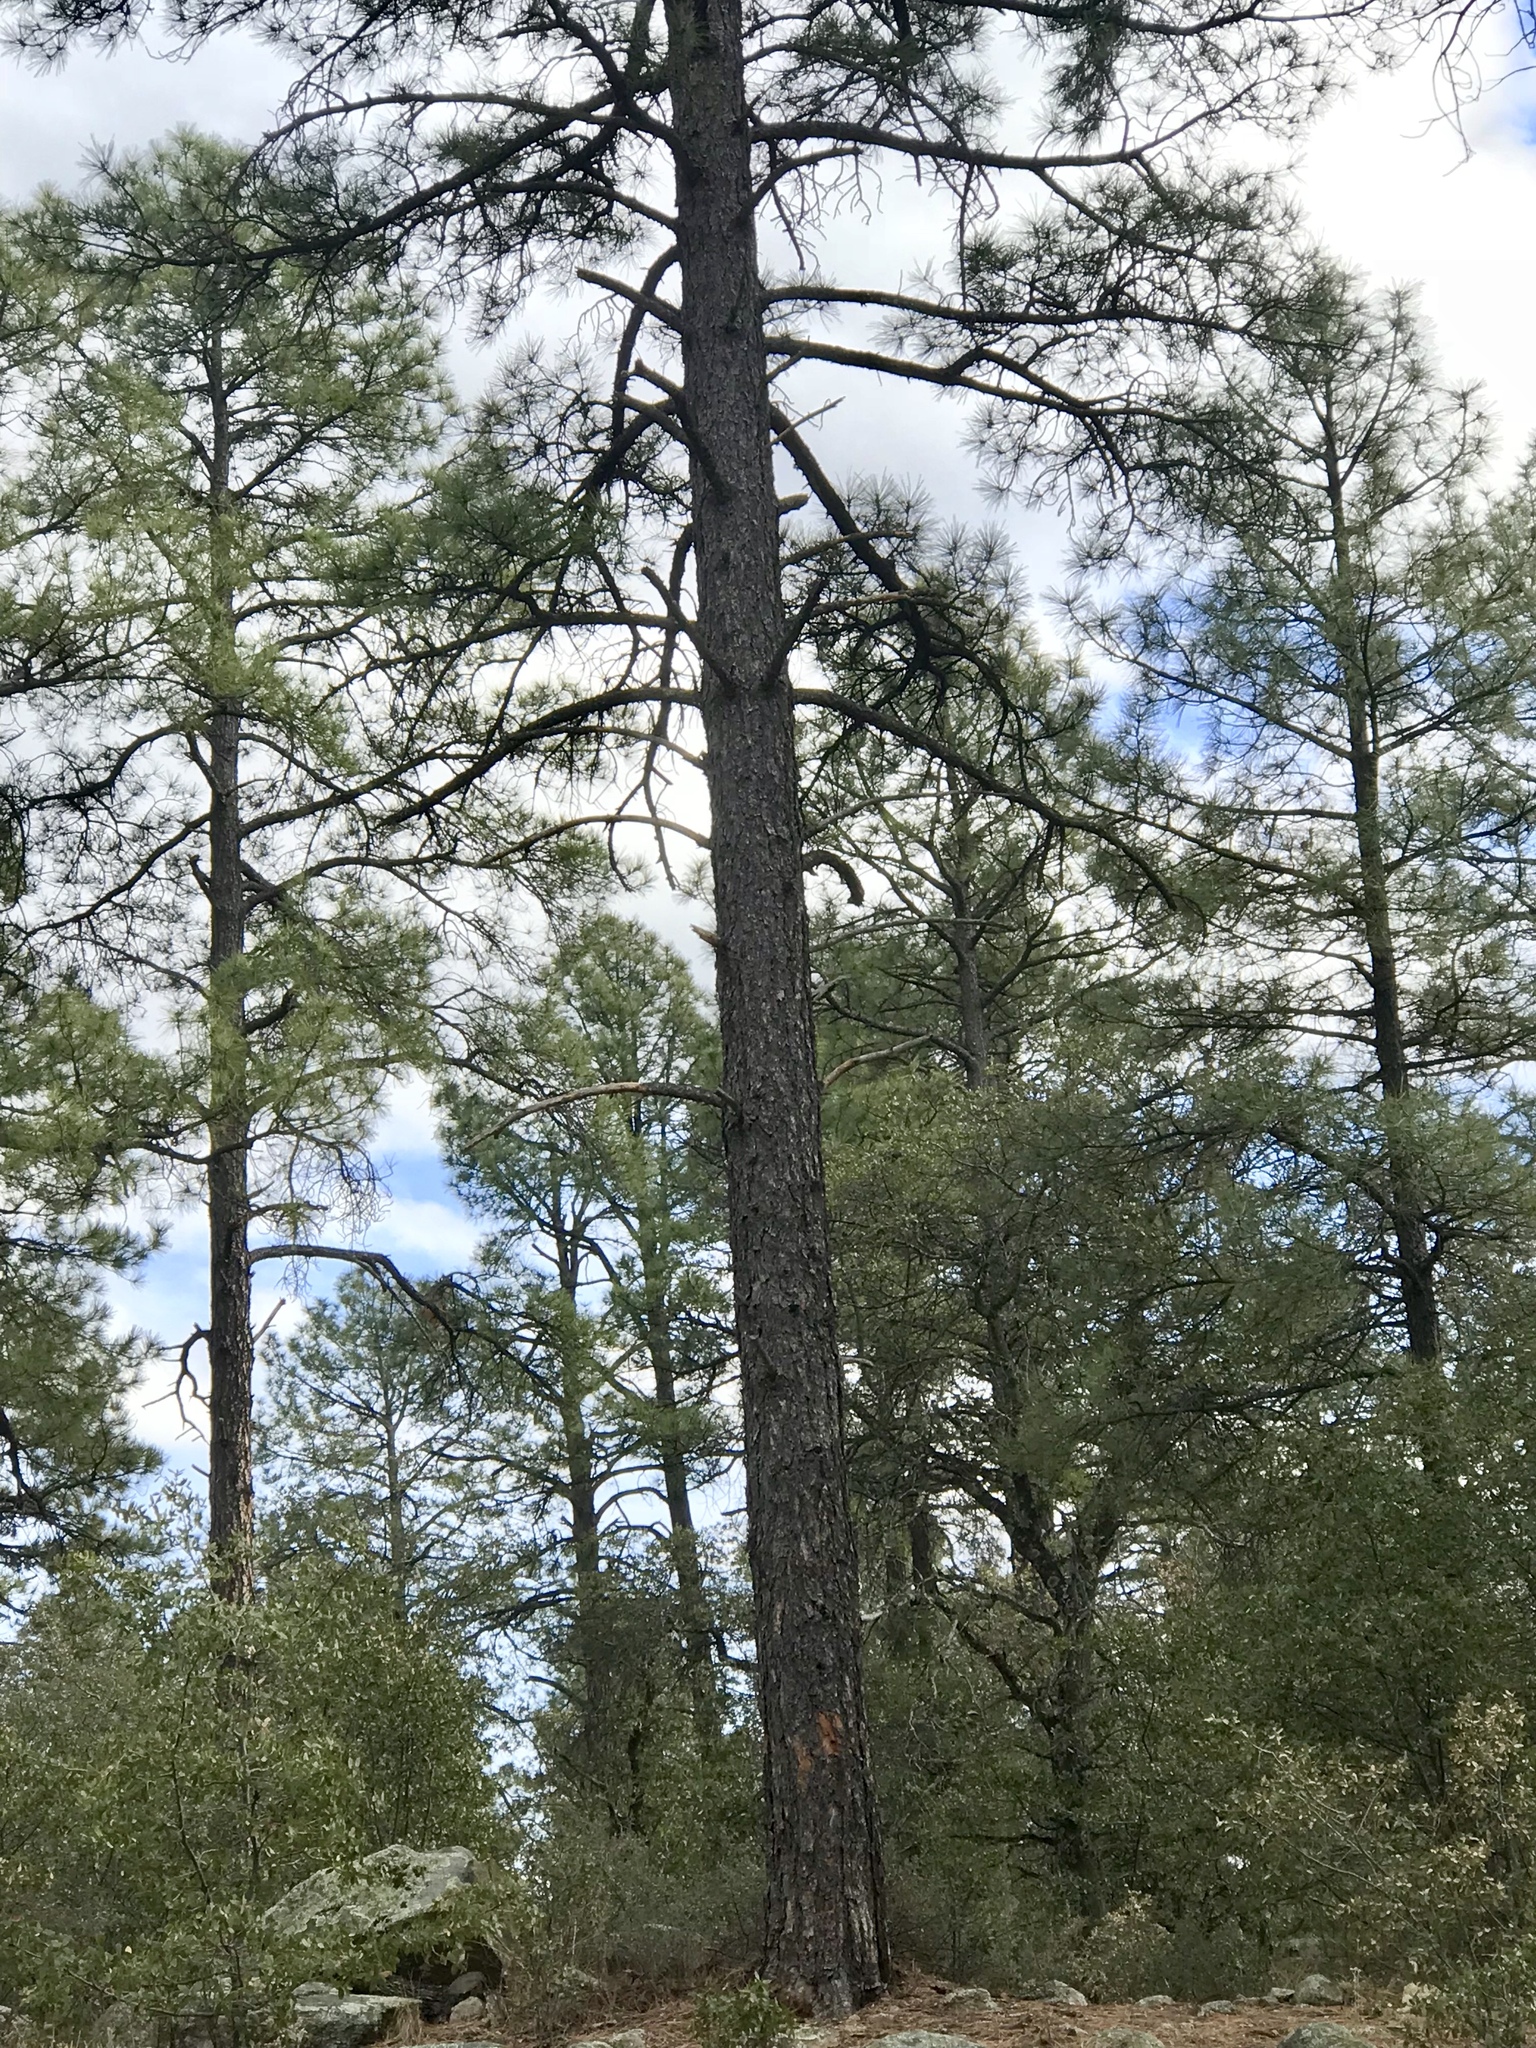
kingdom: Plantae
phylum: Tracheophyta
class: Pinopsida
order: Pinales
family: Pinaceae
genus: Pinus
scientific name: Pinus ponderosa
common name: Western yellow-pine
